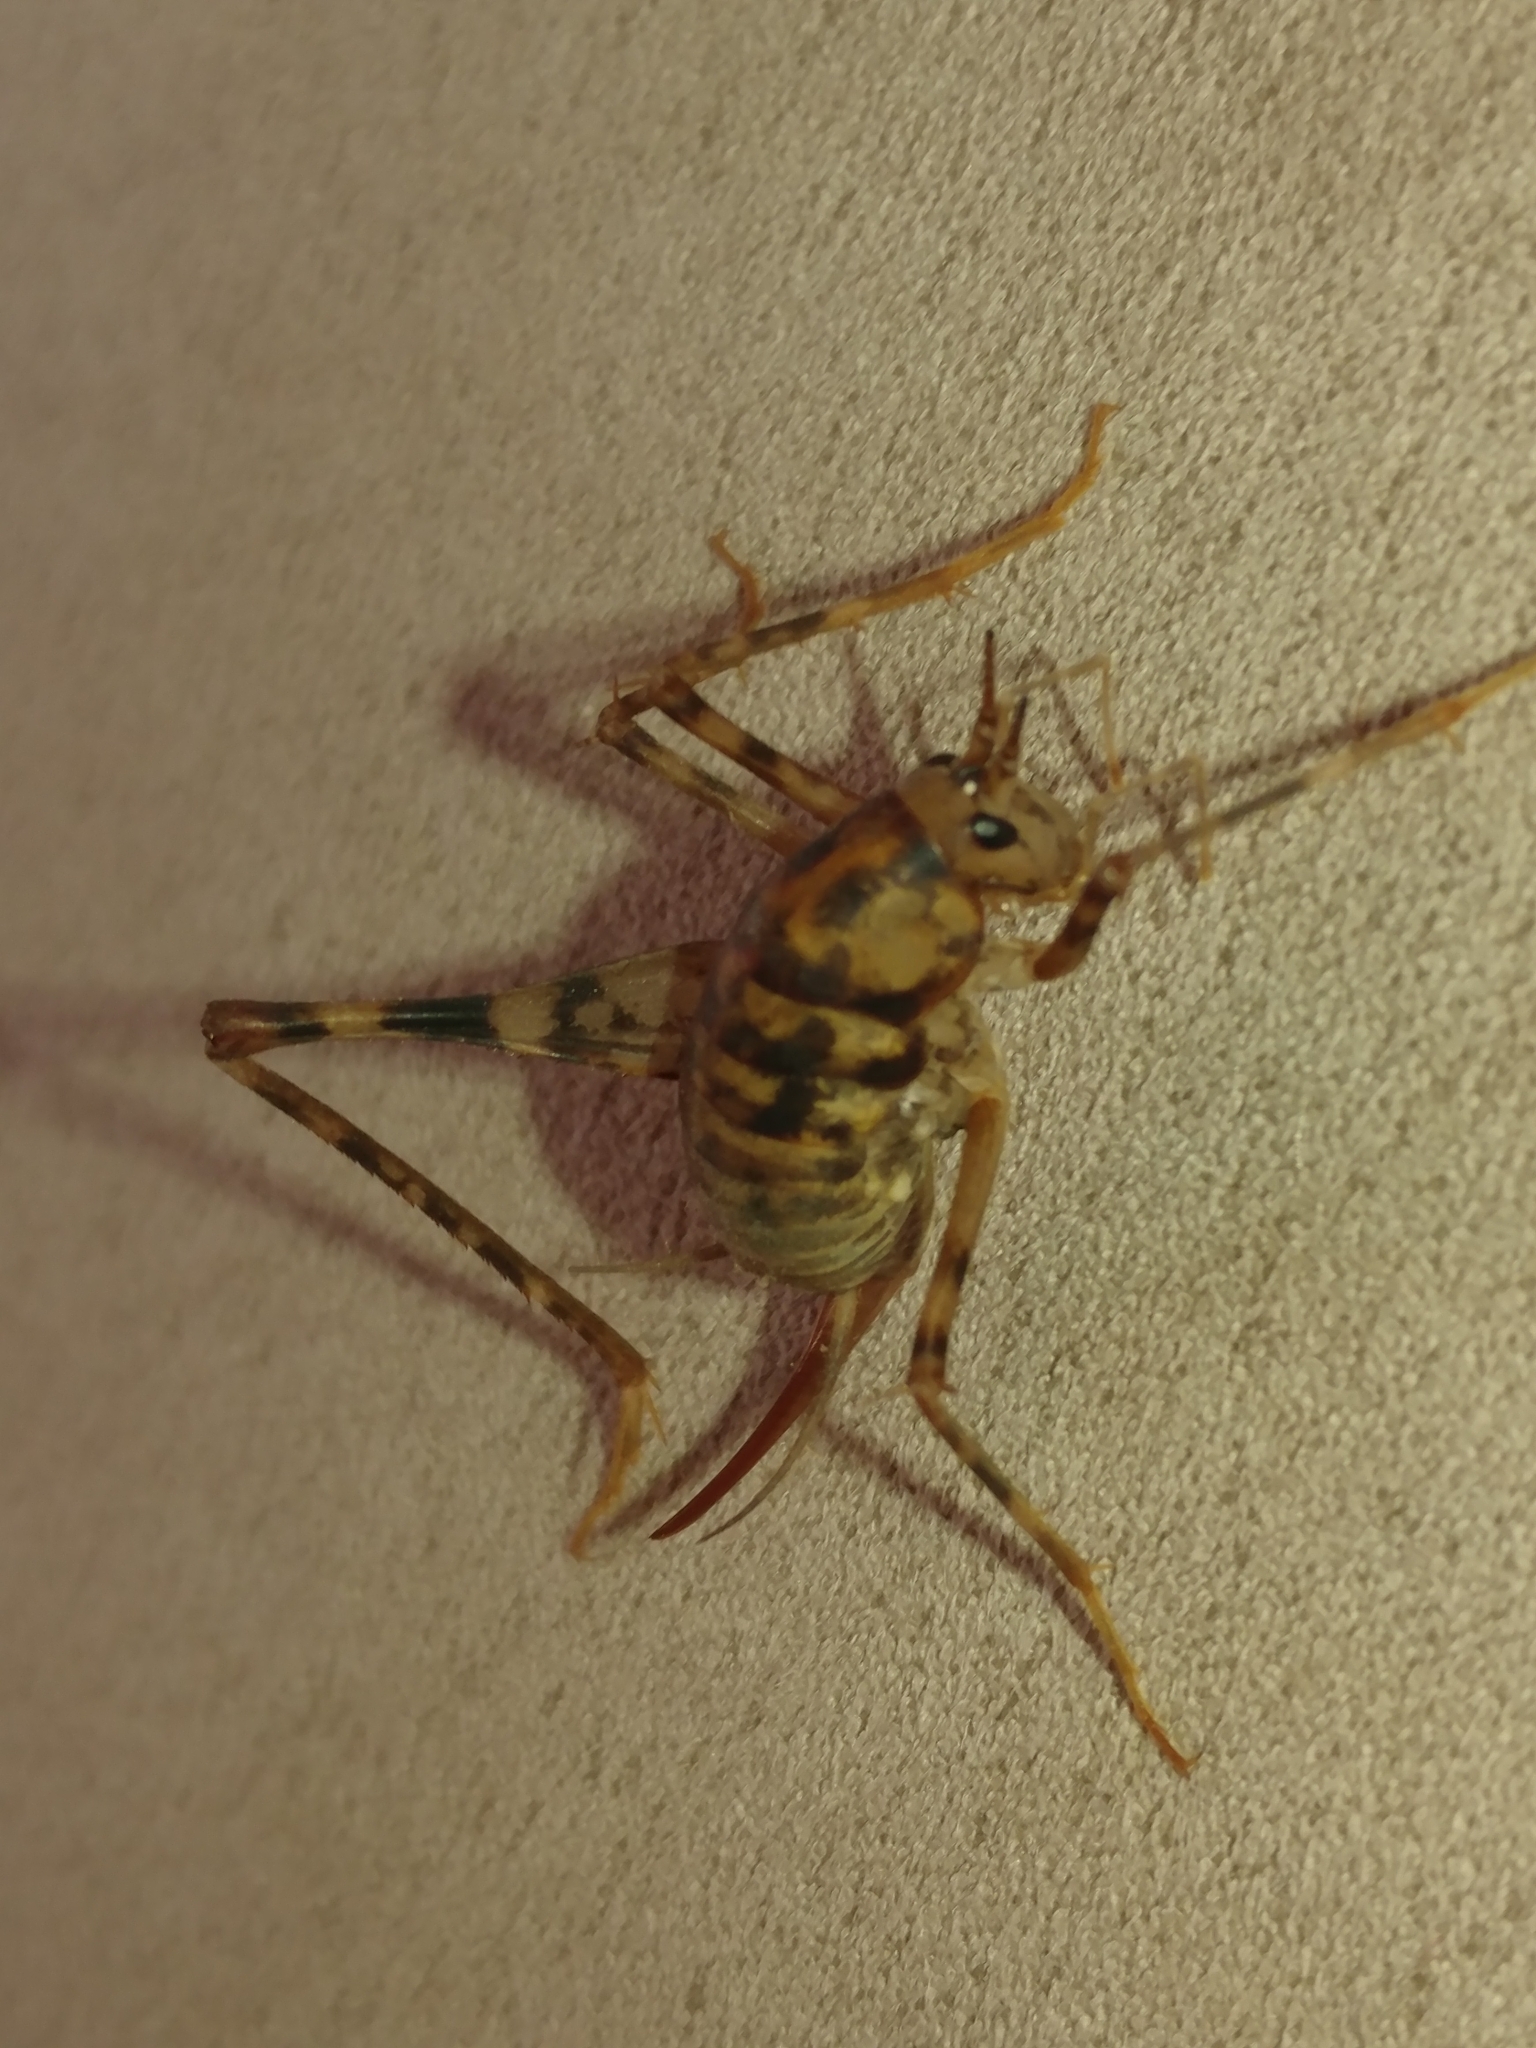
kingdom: Animalia
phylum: Arthropoda
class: Insecta
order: Orthoptera
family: Rhaphidophoridae
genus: Tachycines
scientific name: Tachycines asynamorus
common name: Greenhouse camel cricket
